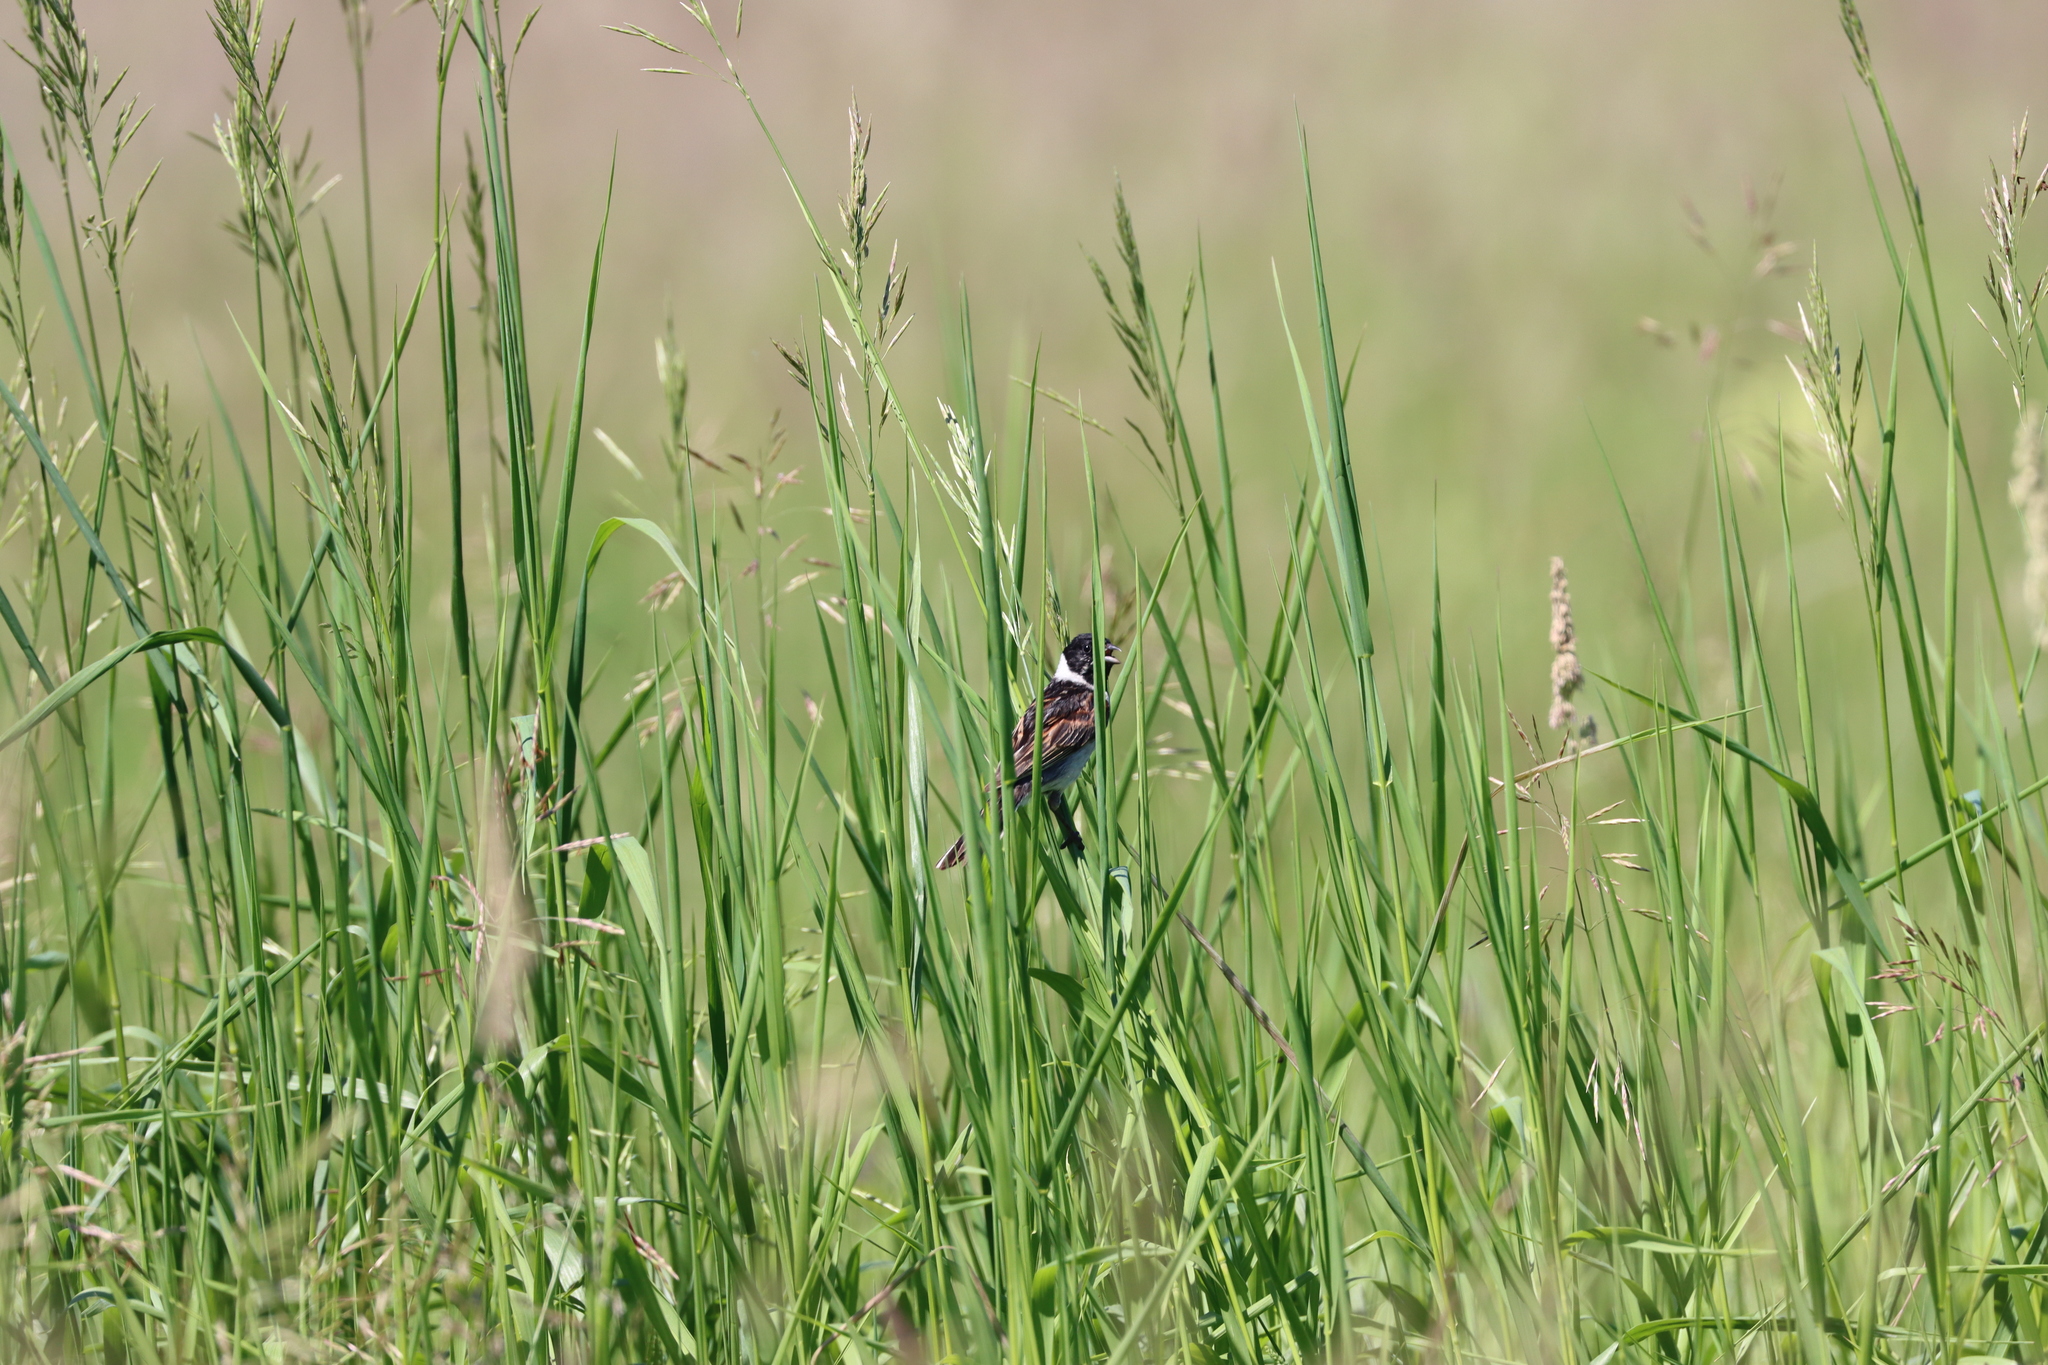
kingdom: Animalia
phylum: Chordata
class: Aves
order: Passeriformes
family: Emberizidae
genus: Emberiza
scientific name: Emberiza schoeniclus
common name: Reed bunting
